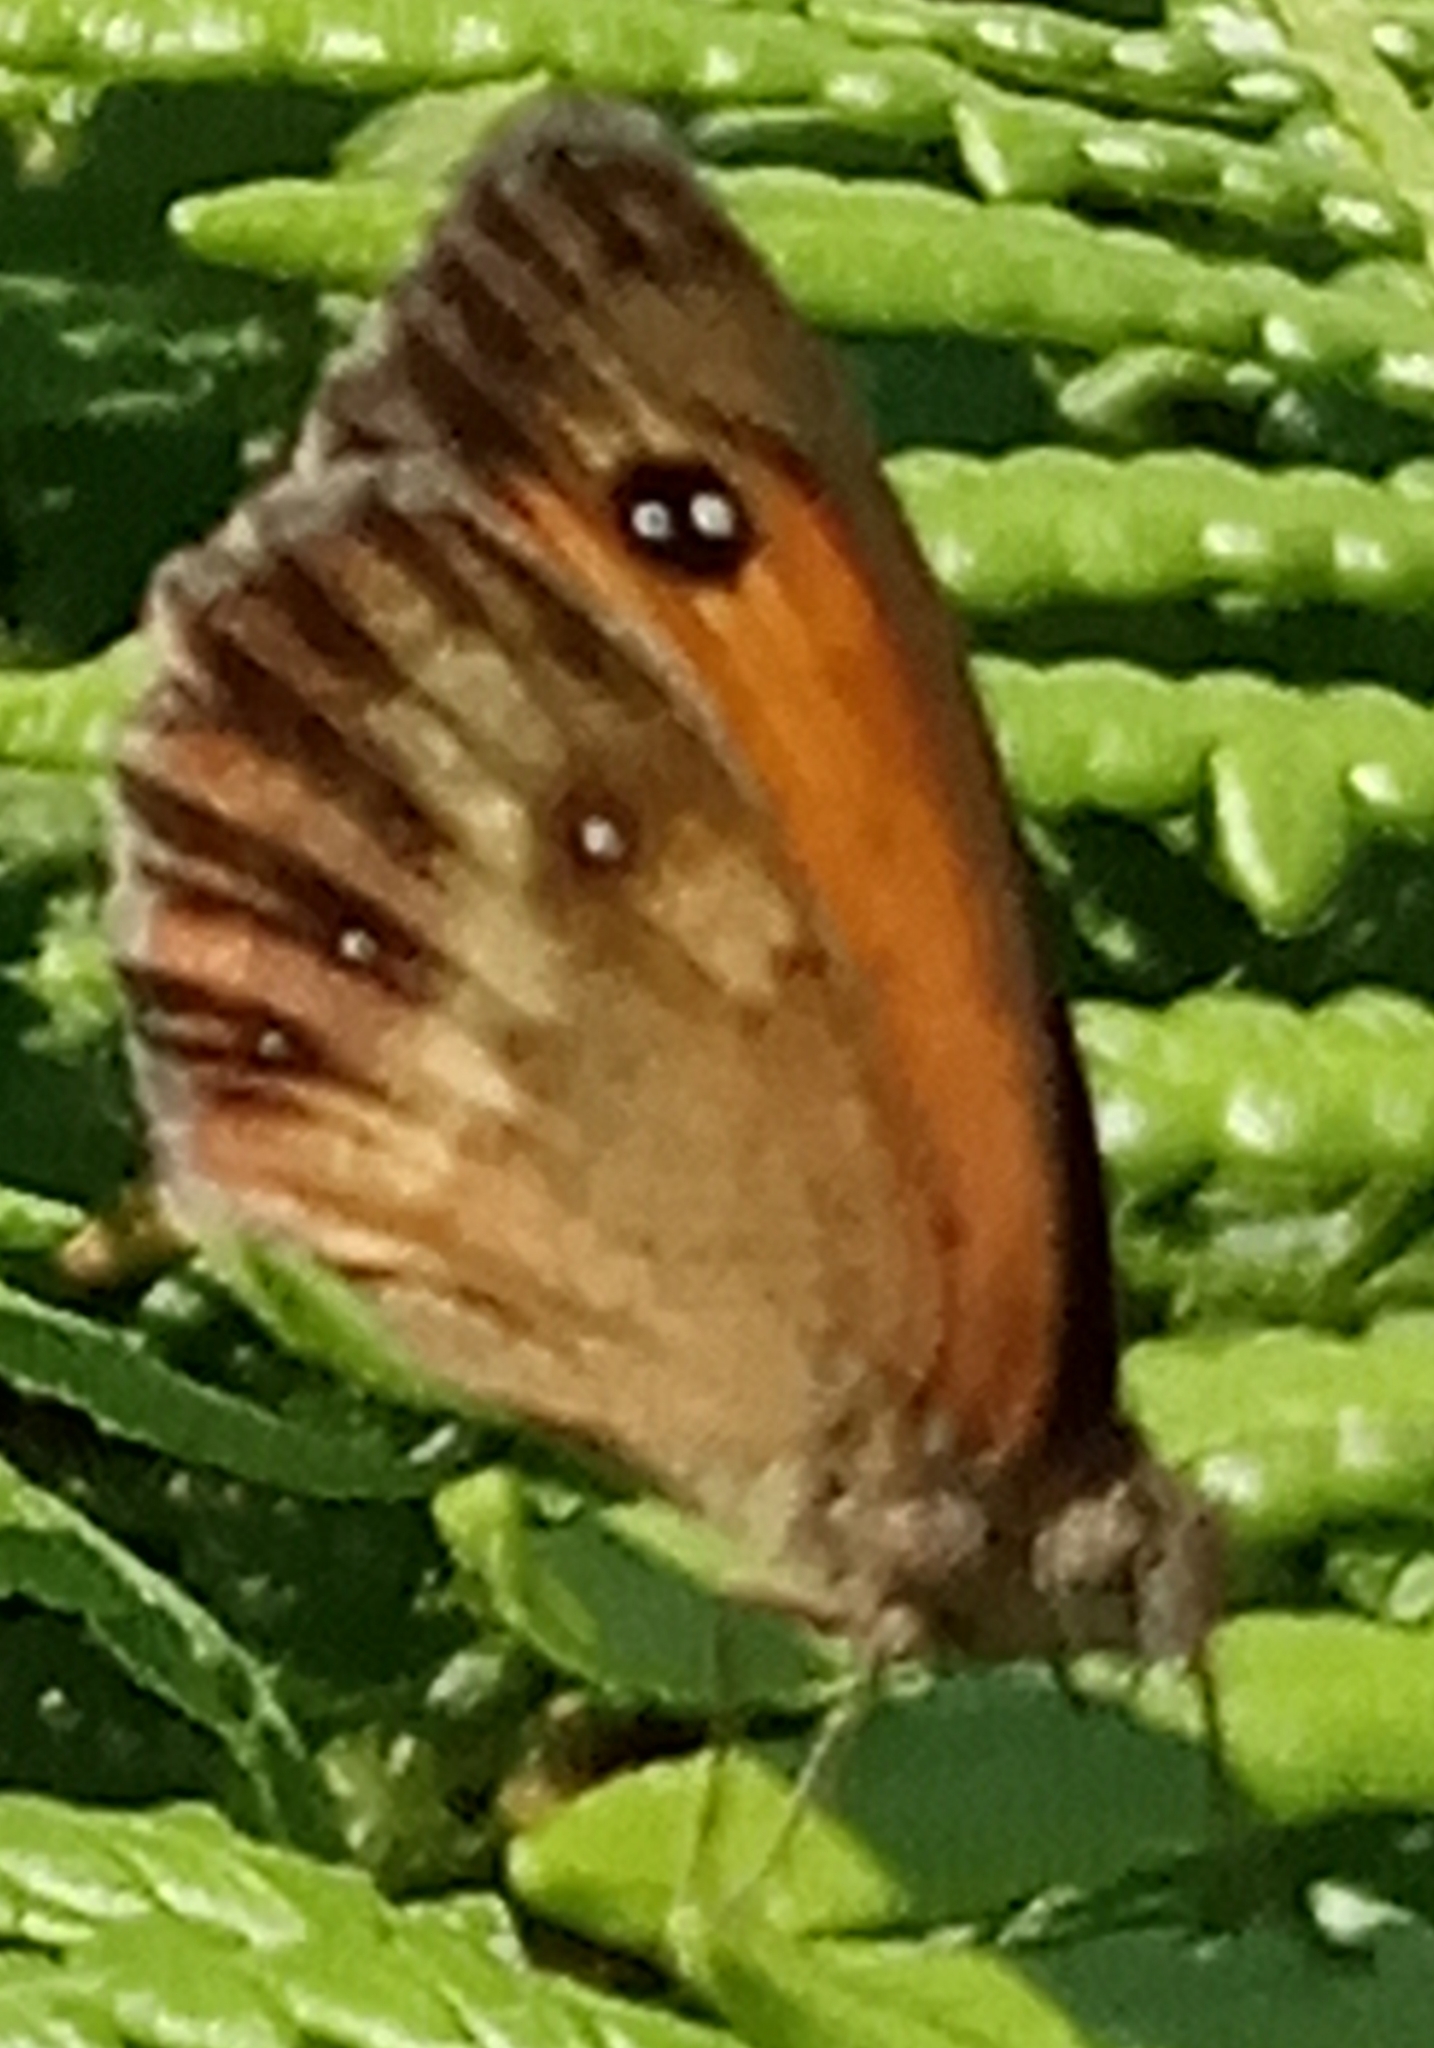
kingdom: Animalia
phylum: Arthropoda
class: Insecta
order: Lepidoptera
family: Nymphalidae
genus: Pyronia
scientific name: Pyronia tithonus
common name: Gatekeeper
